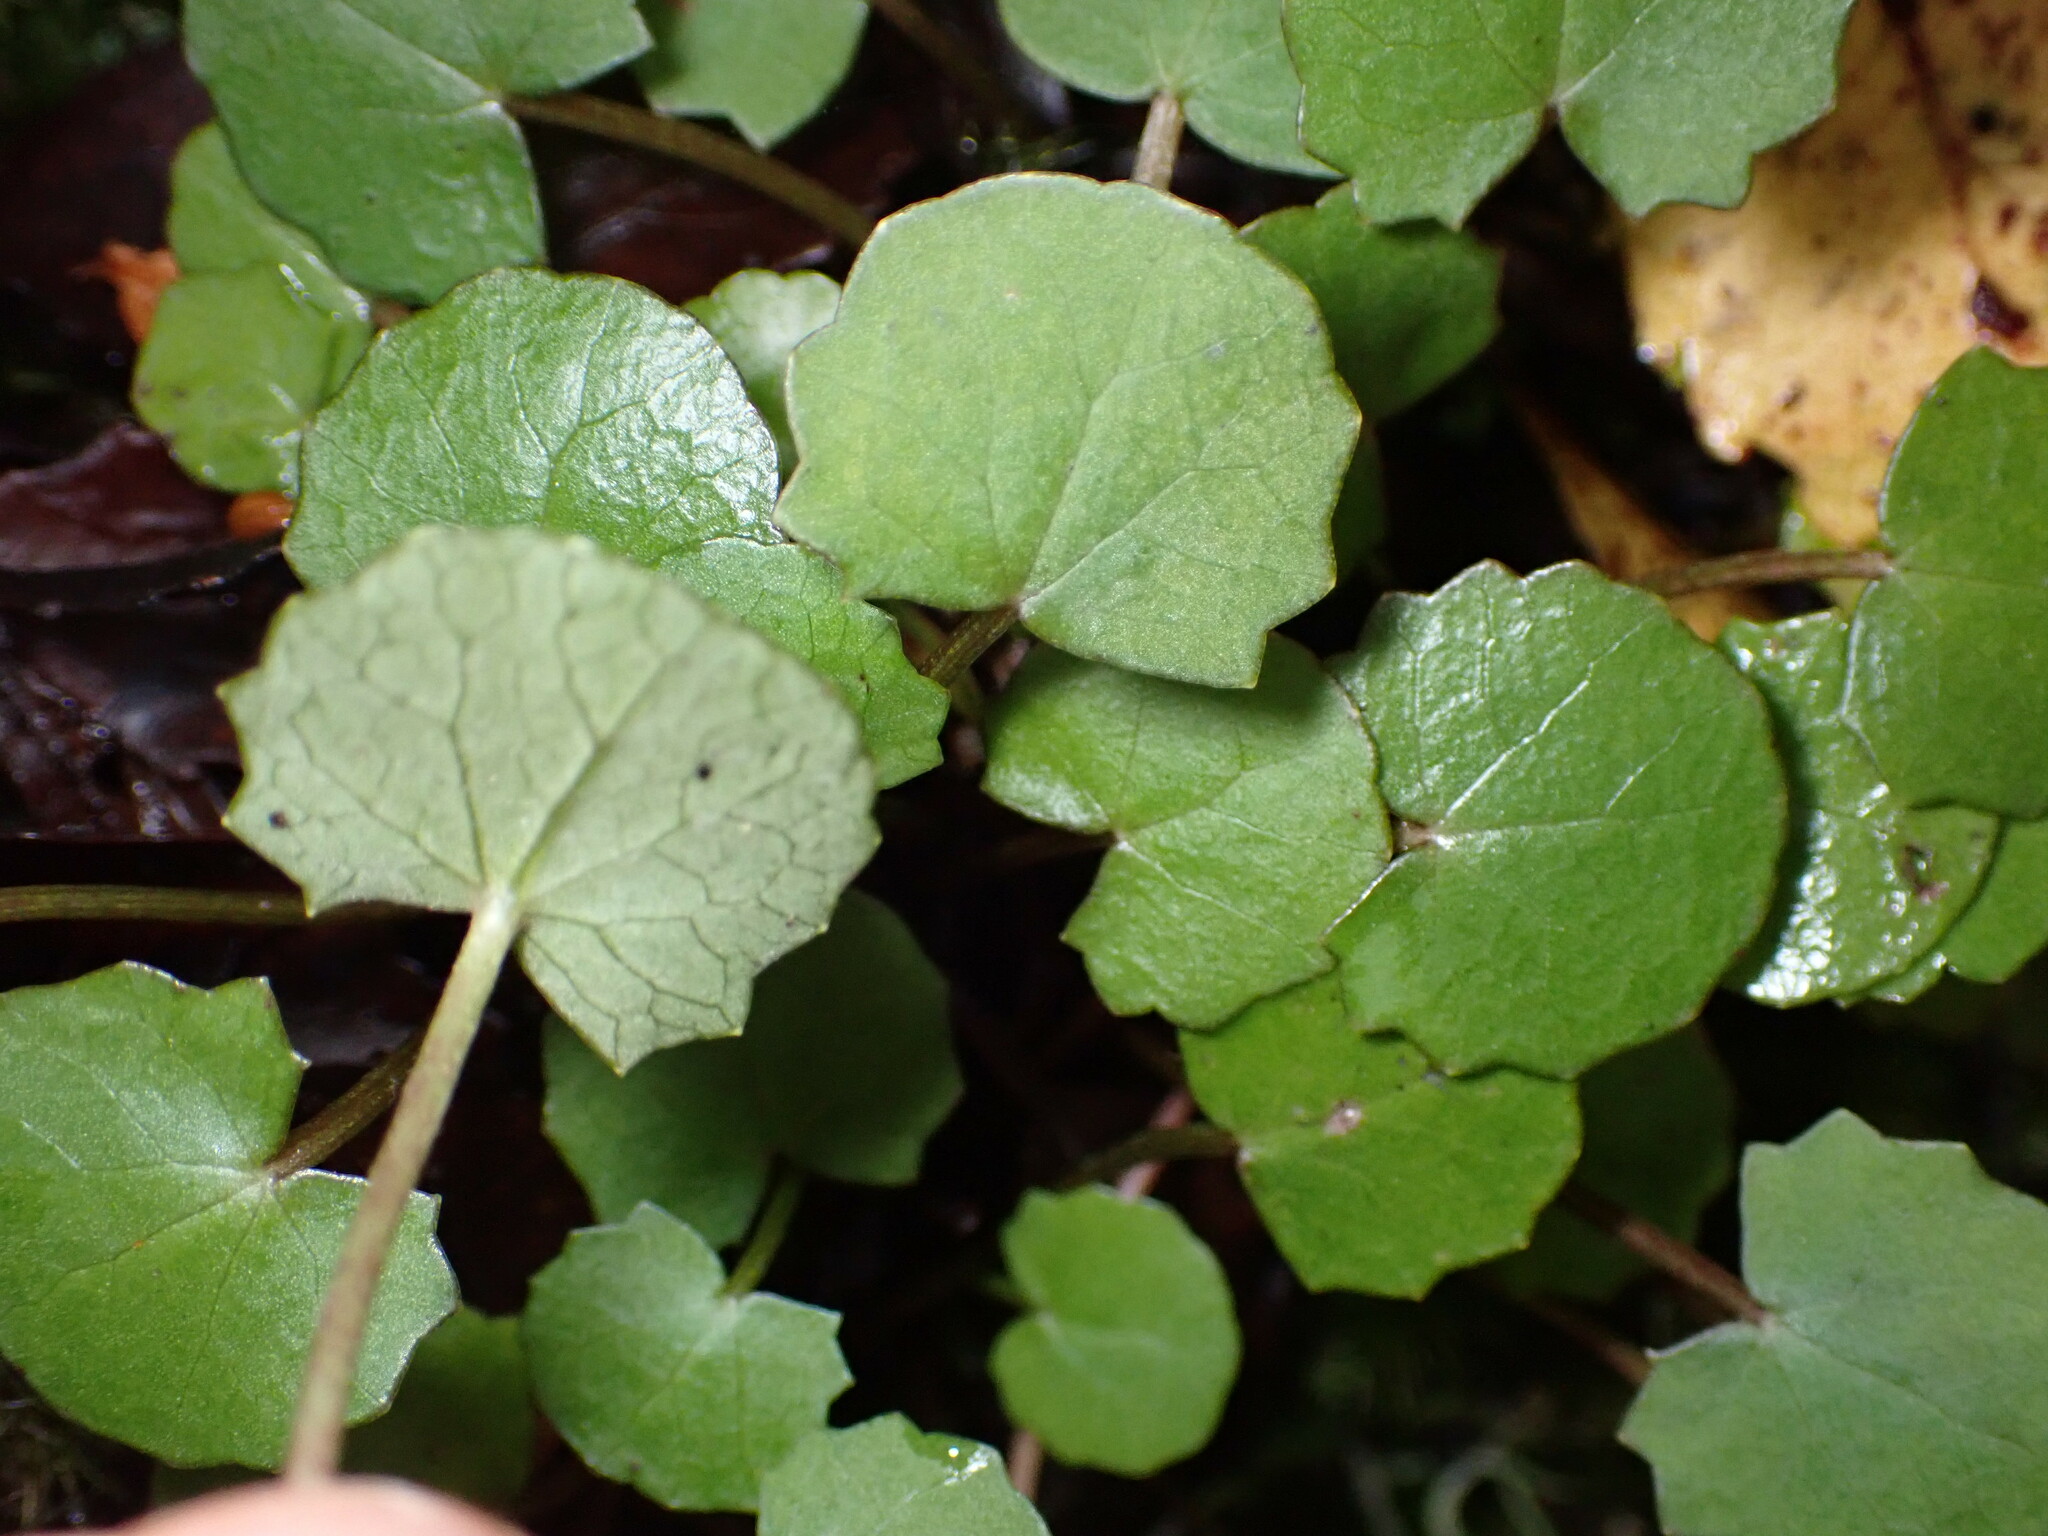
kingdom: Plantae
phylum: Tracheophyta
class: Magnoliopsida
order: Apiales
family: Apiaceae
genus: Centella
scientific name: Centella uniflora
